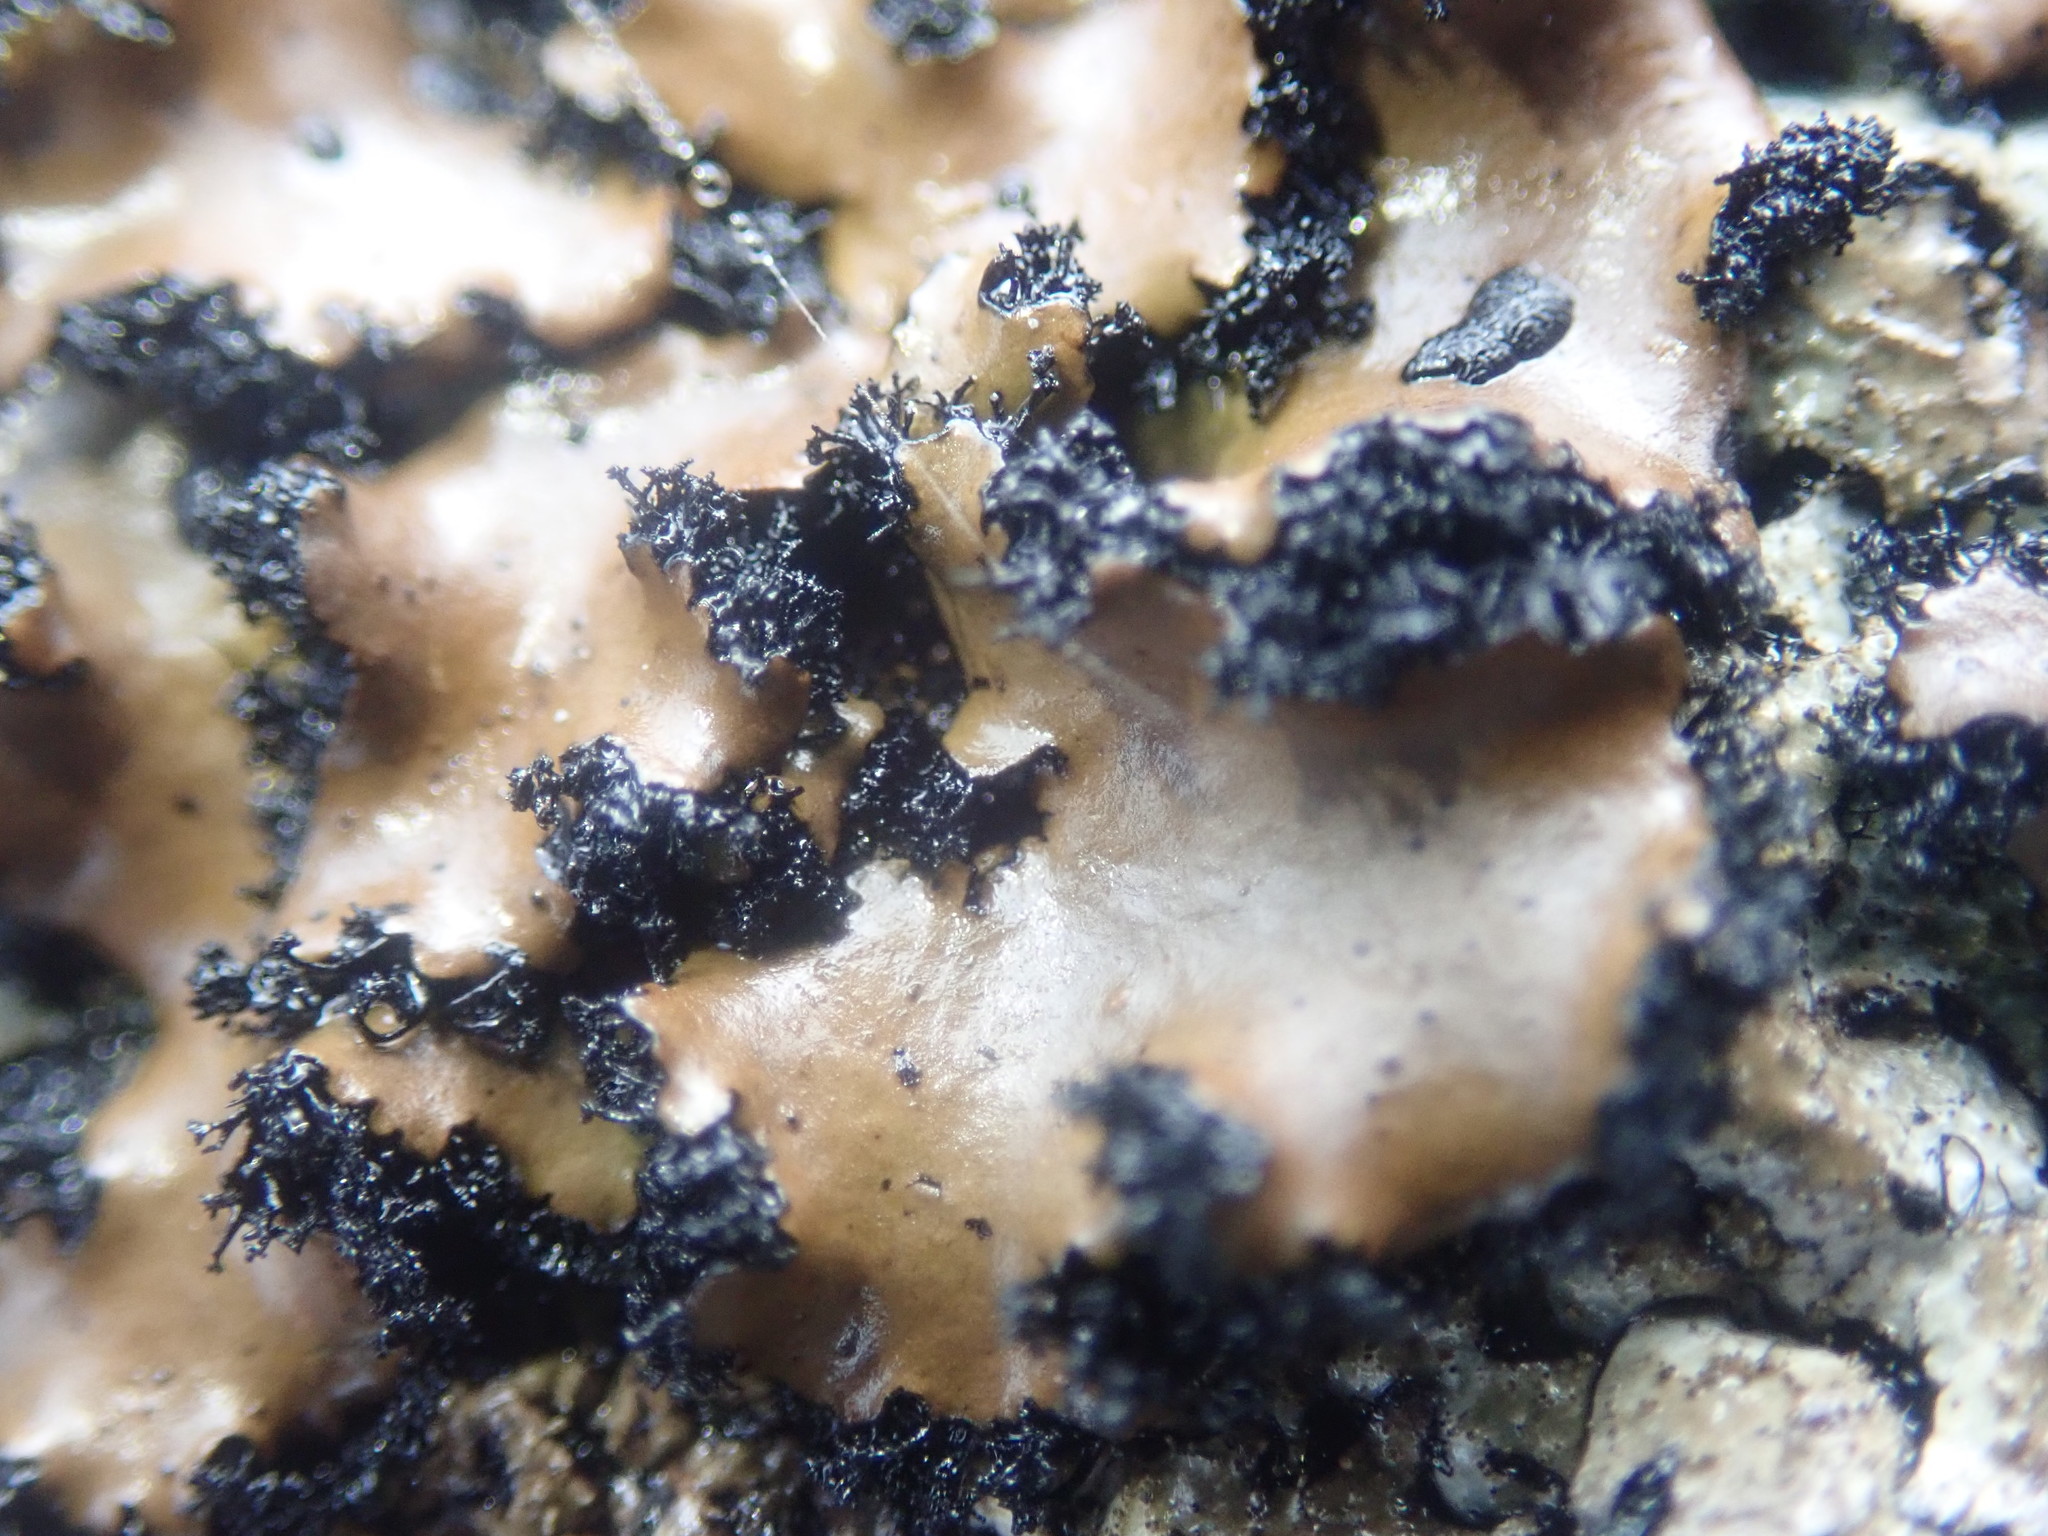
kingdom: Fungi
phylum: Ascomycota
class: Lecanoromycetes
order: Umbilicariales
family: Umbilicariaceae
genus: Umbilicaria
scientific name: Umbilicaria polyrrhiza
